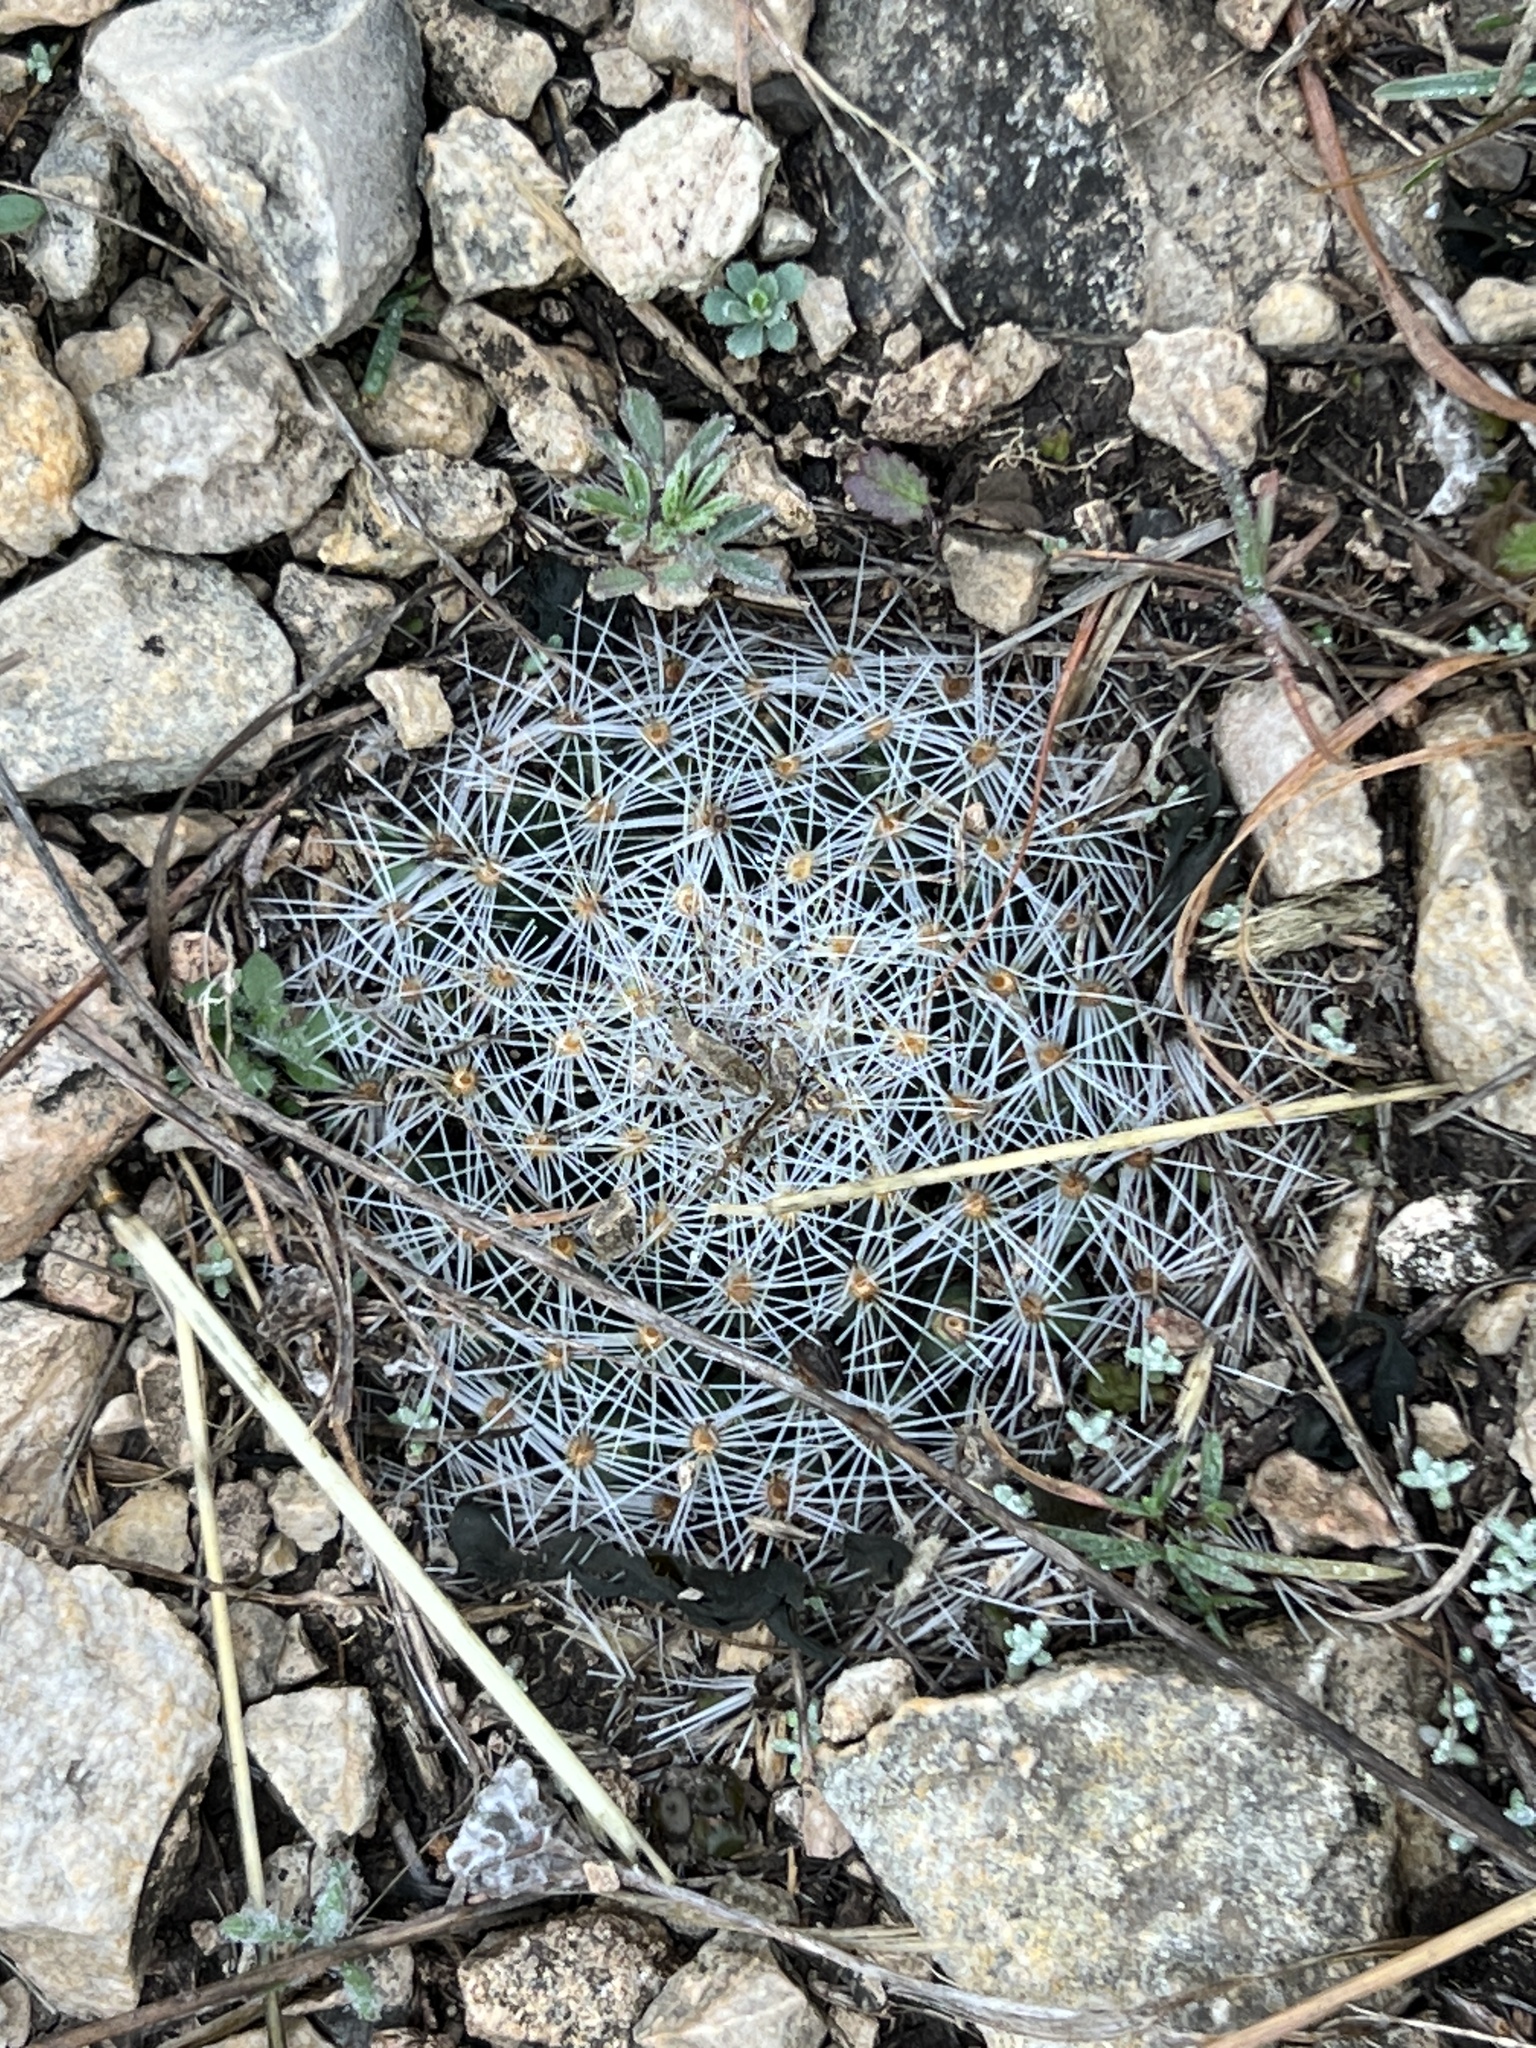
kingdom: Plantae
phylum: Tracheophyta
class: Magnoliopsida
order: Caryophyllales
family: Cactaceae
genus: Mammillaria
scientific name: Mammillaria heyderi
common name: Little nipple cactus
